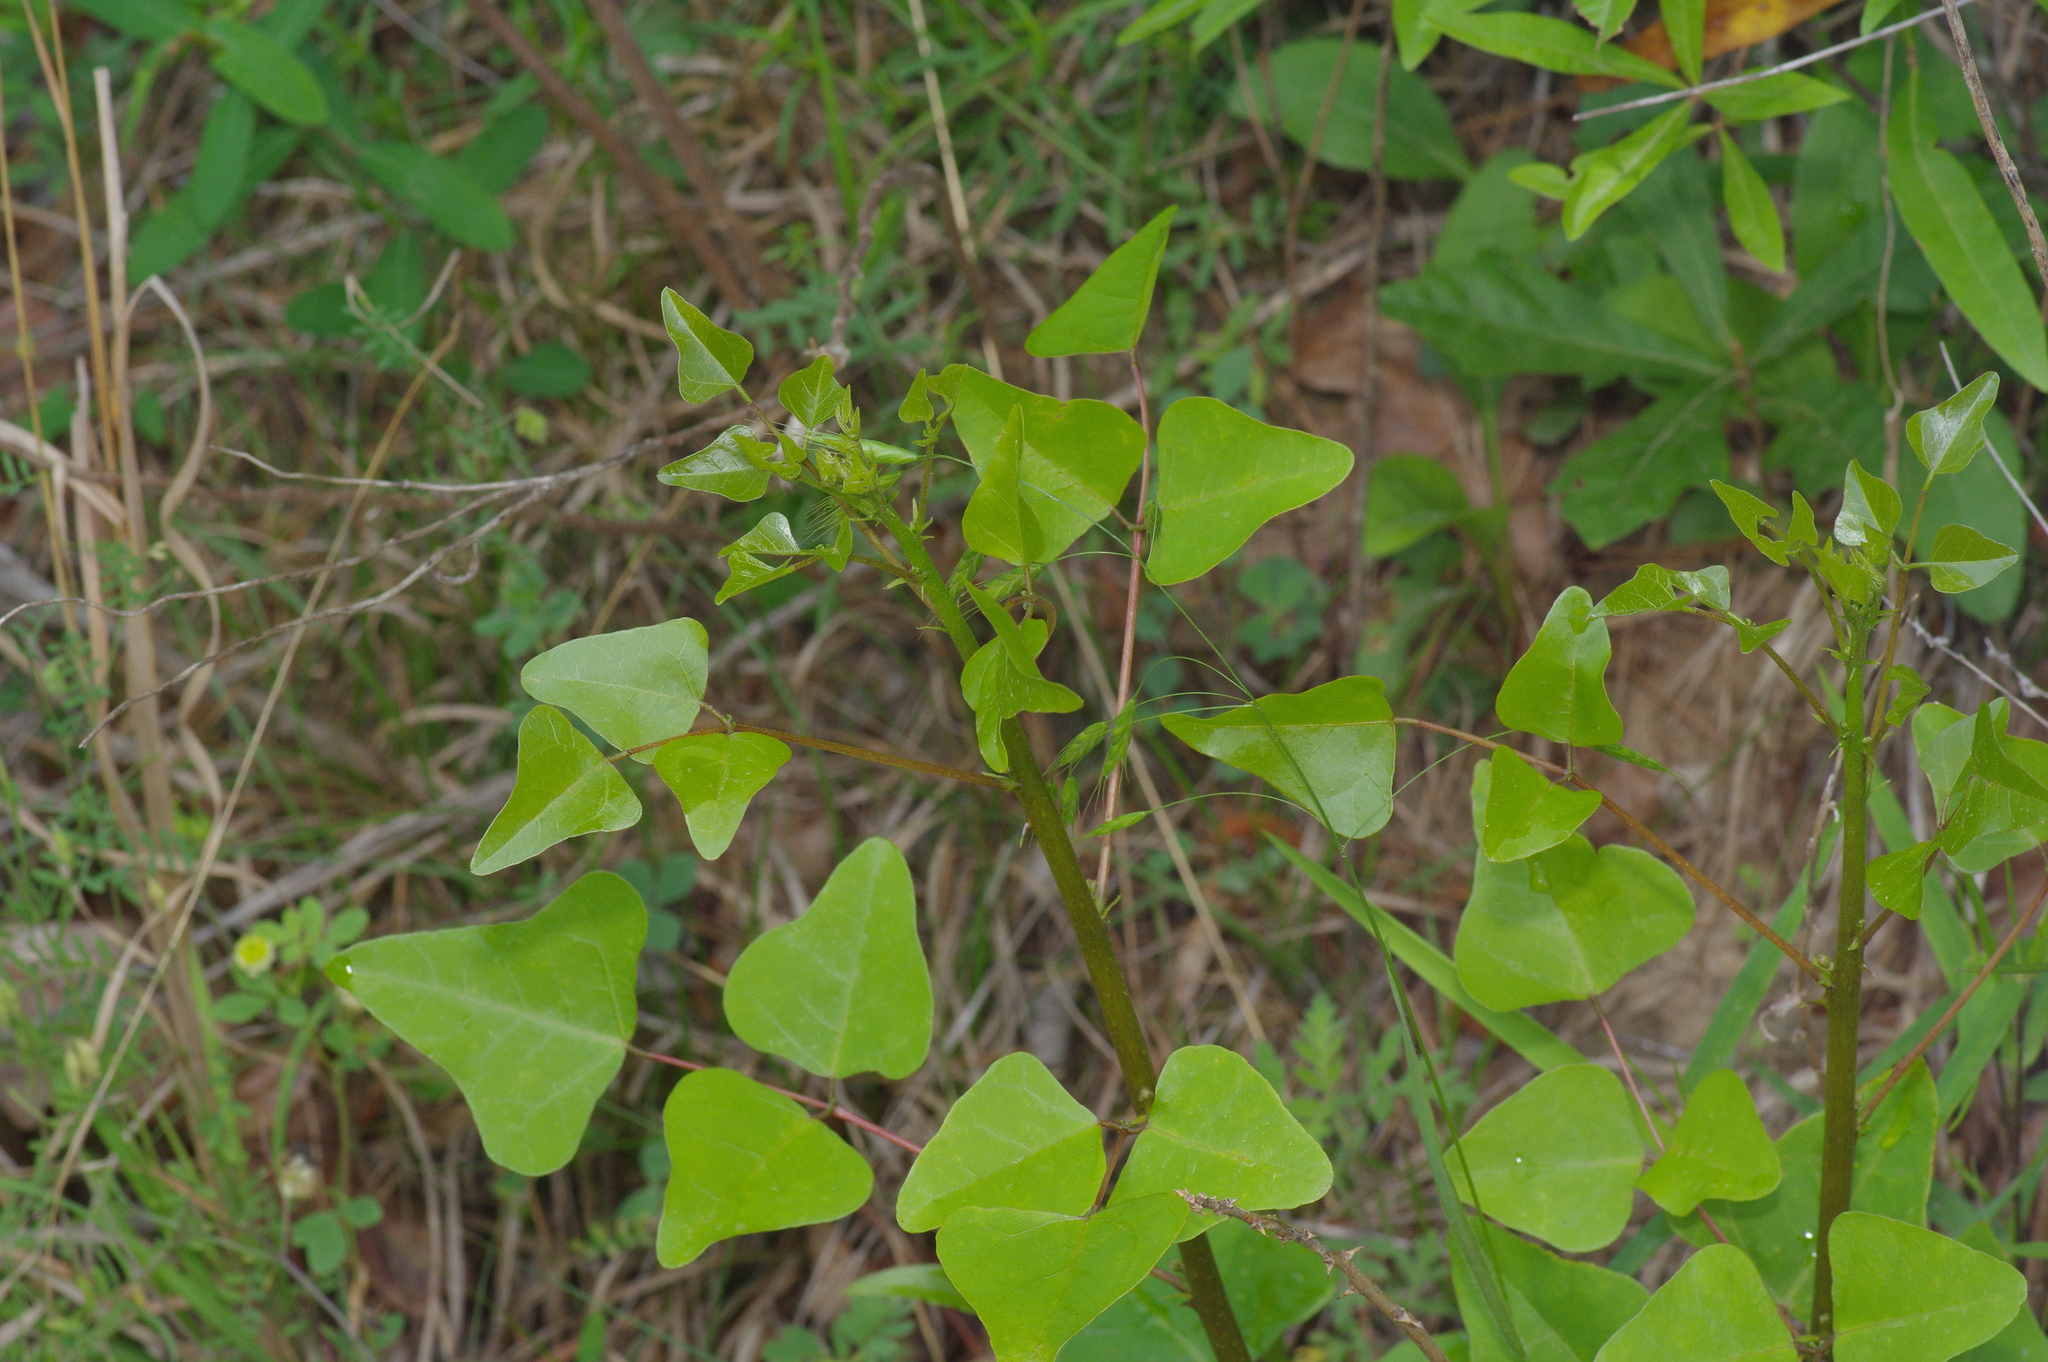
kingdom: Plantae
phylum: Tracheophyta
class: Magnoliopsida
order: Fabales
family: Fabaceae
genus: Erythrina
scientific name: Erythrina herbacea
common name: Coral-bean
